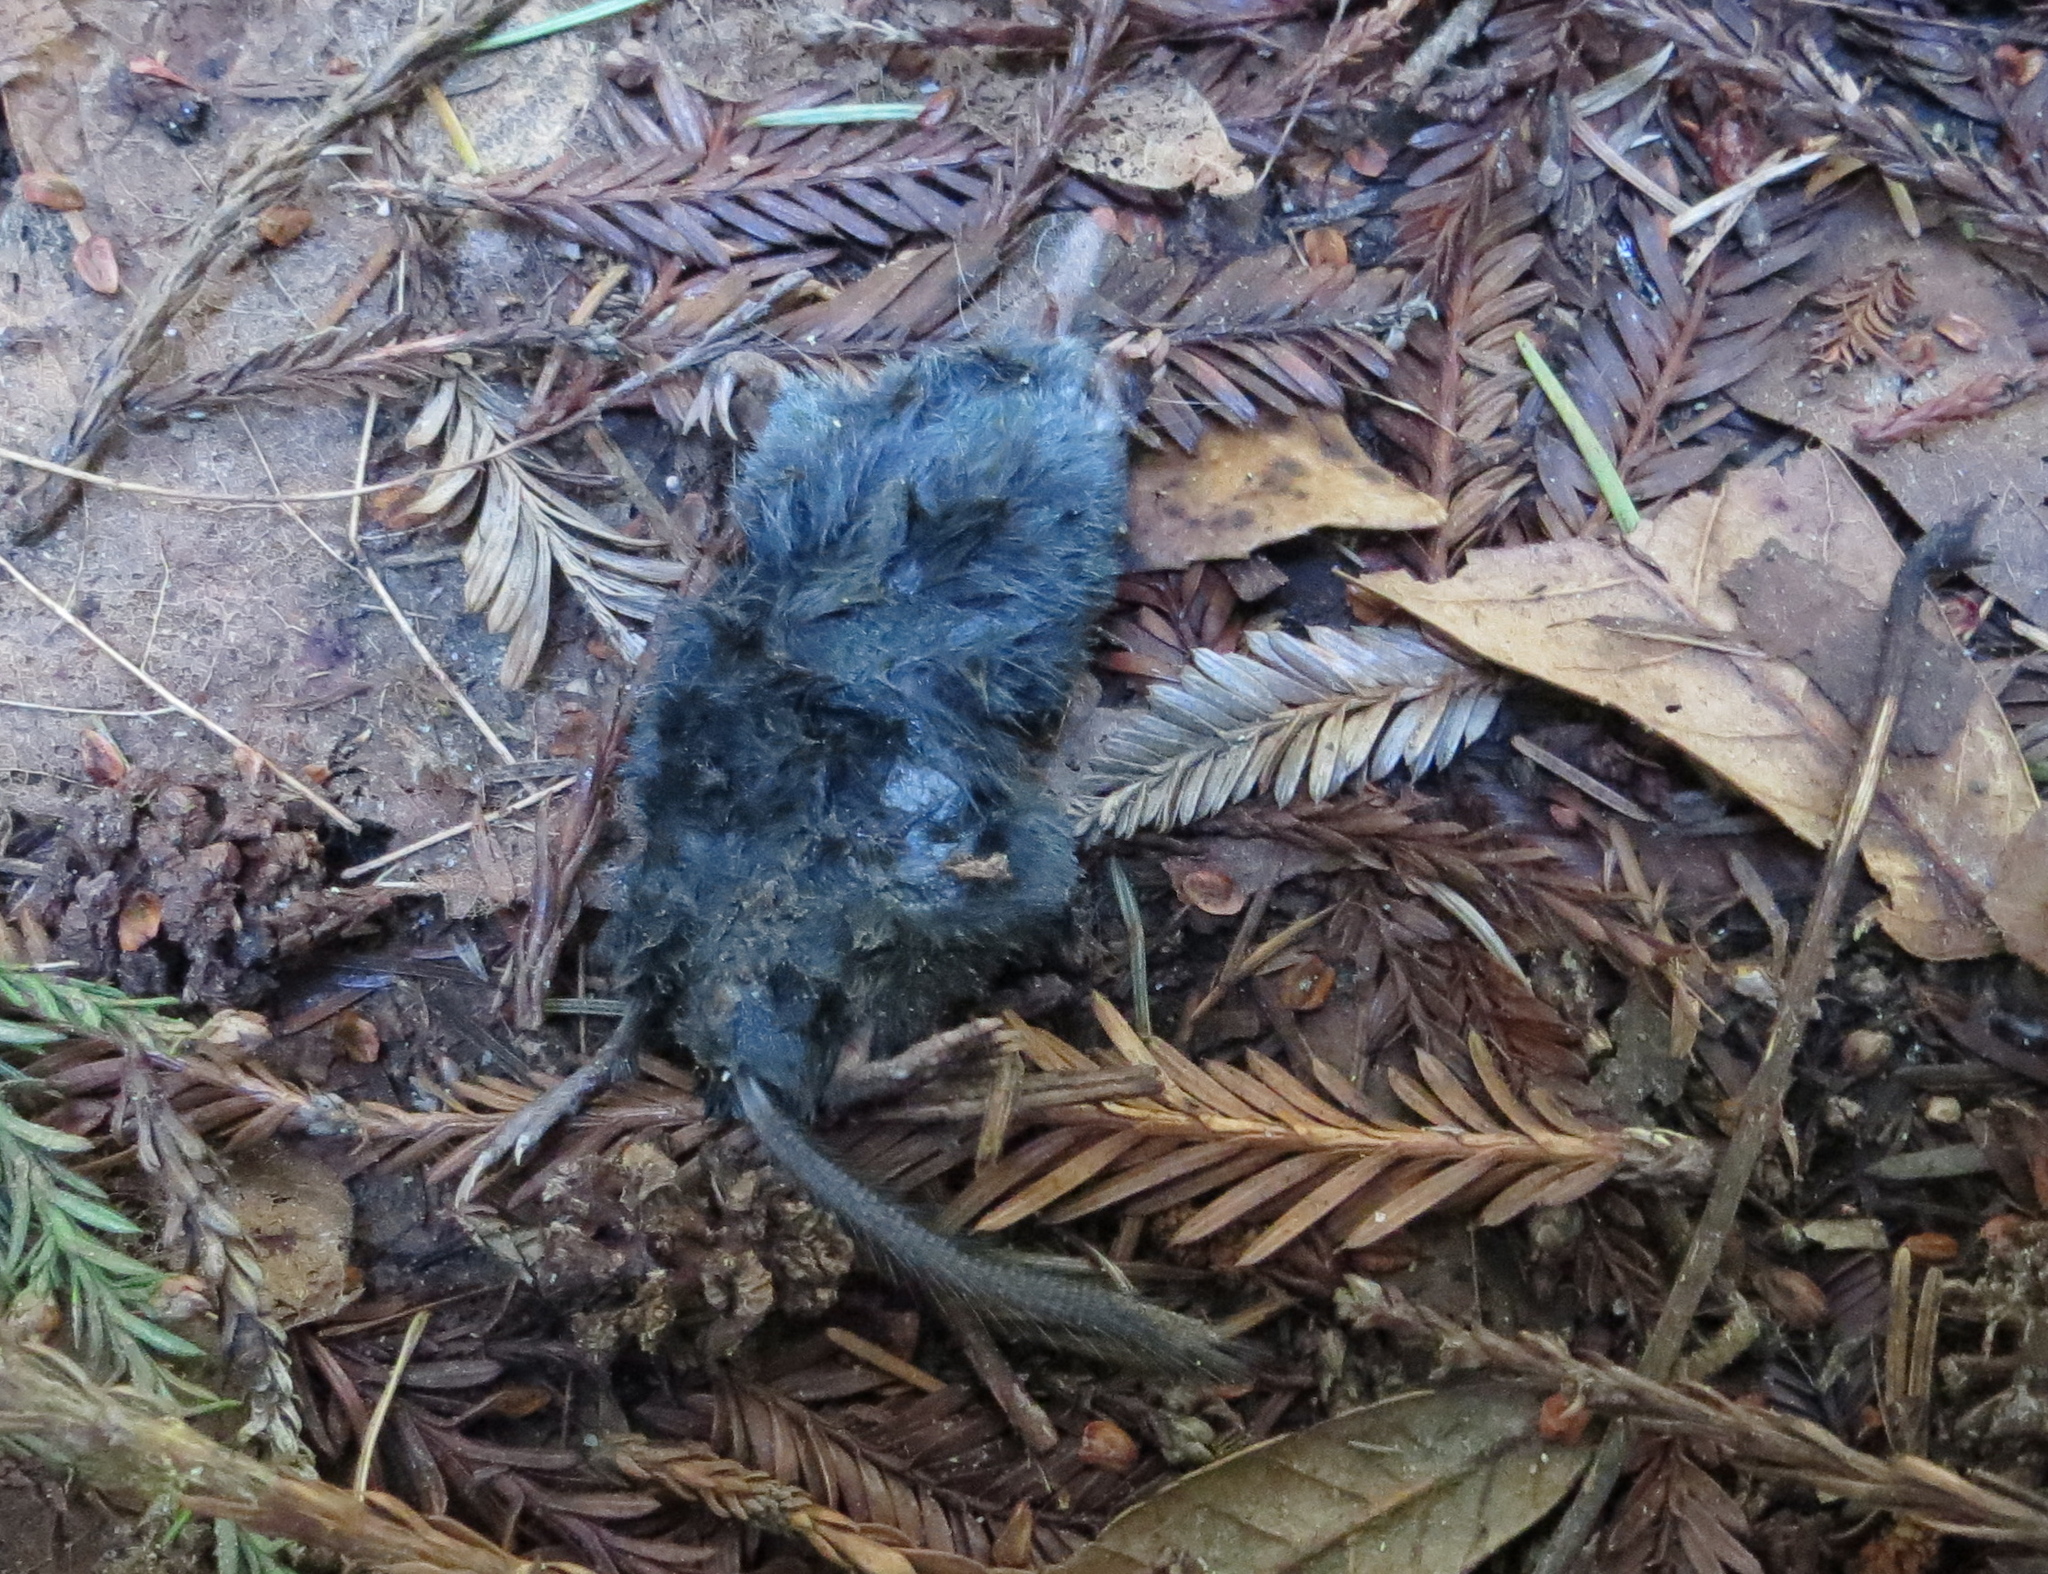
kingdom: Animalia
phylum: Chordata
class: Mammalia
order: Soricomorpha
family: Talpidae
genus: Neurotrichus
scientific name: Neurotrichus gibbsii
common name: American shrew mole
